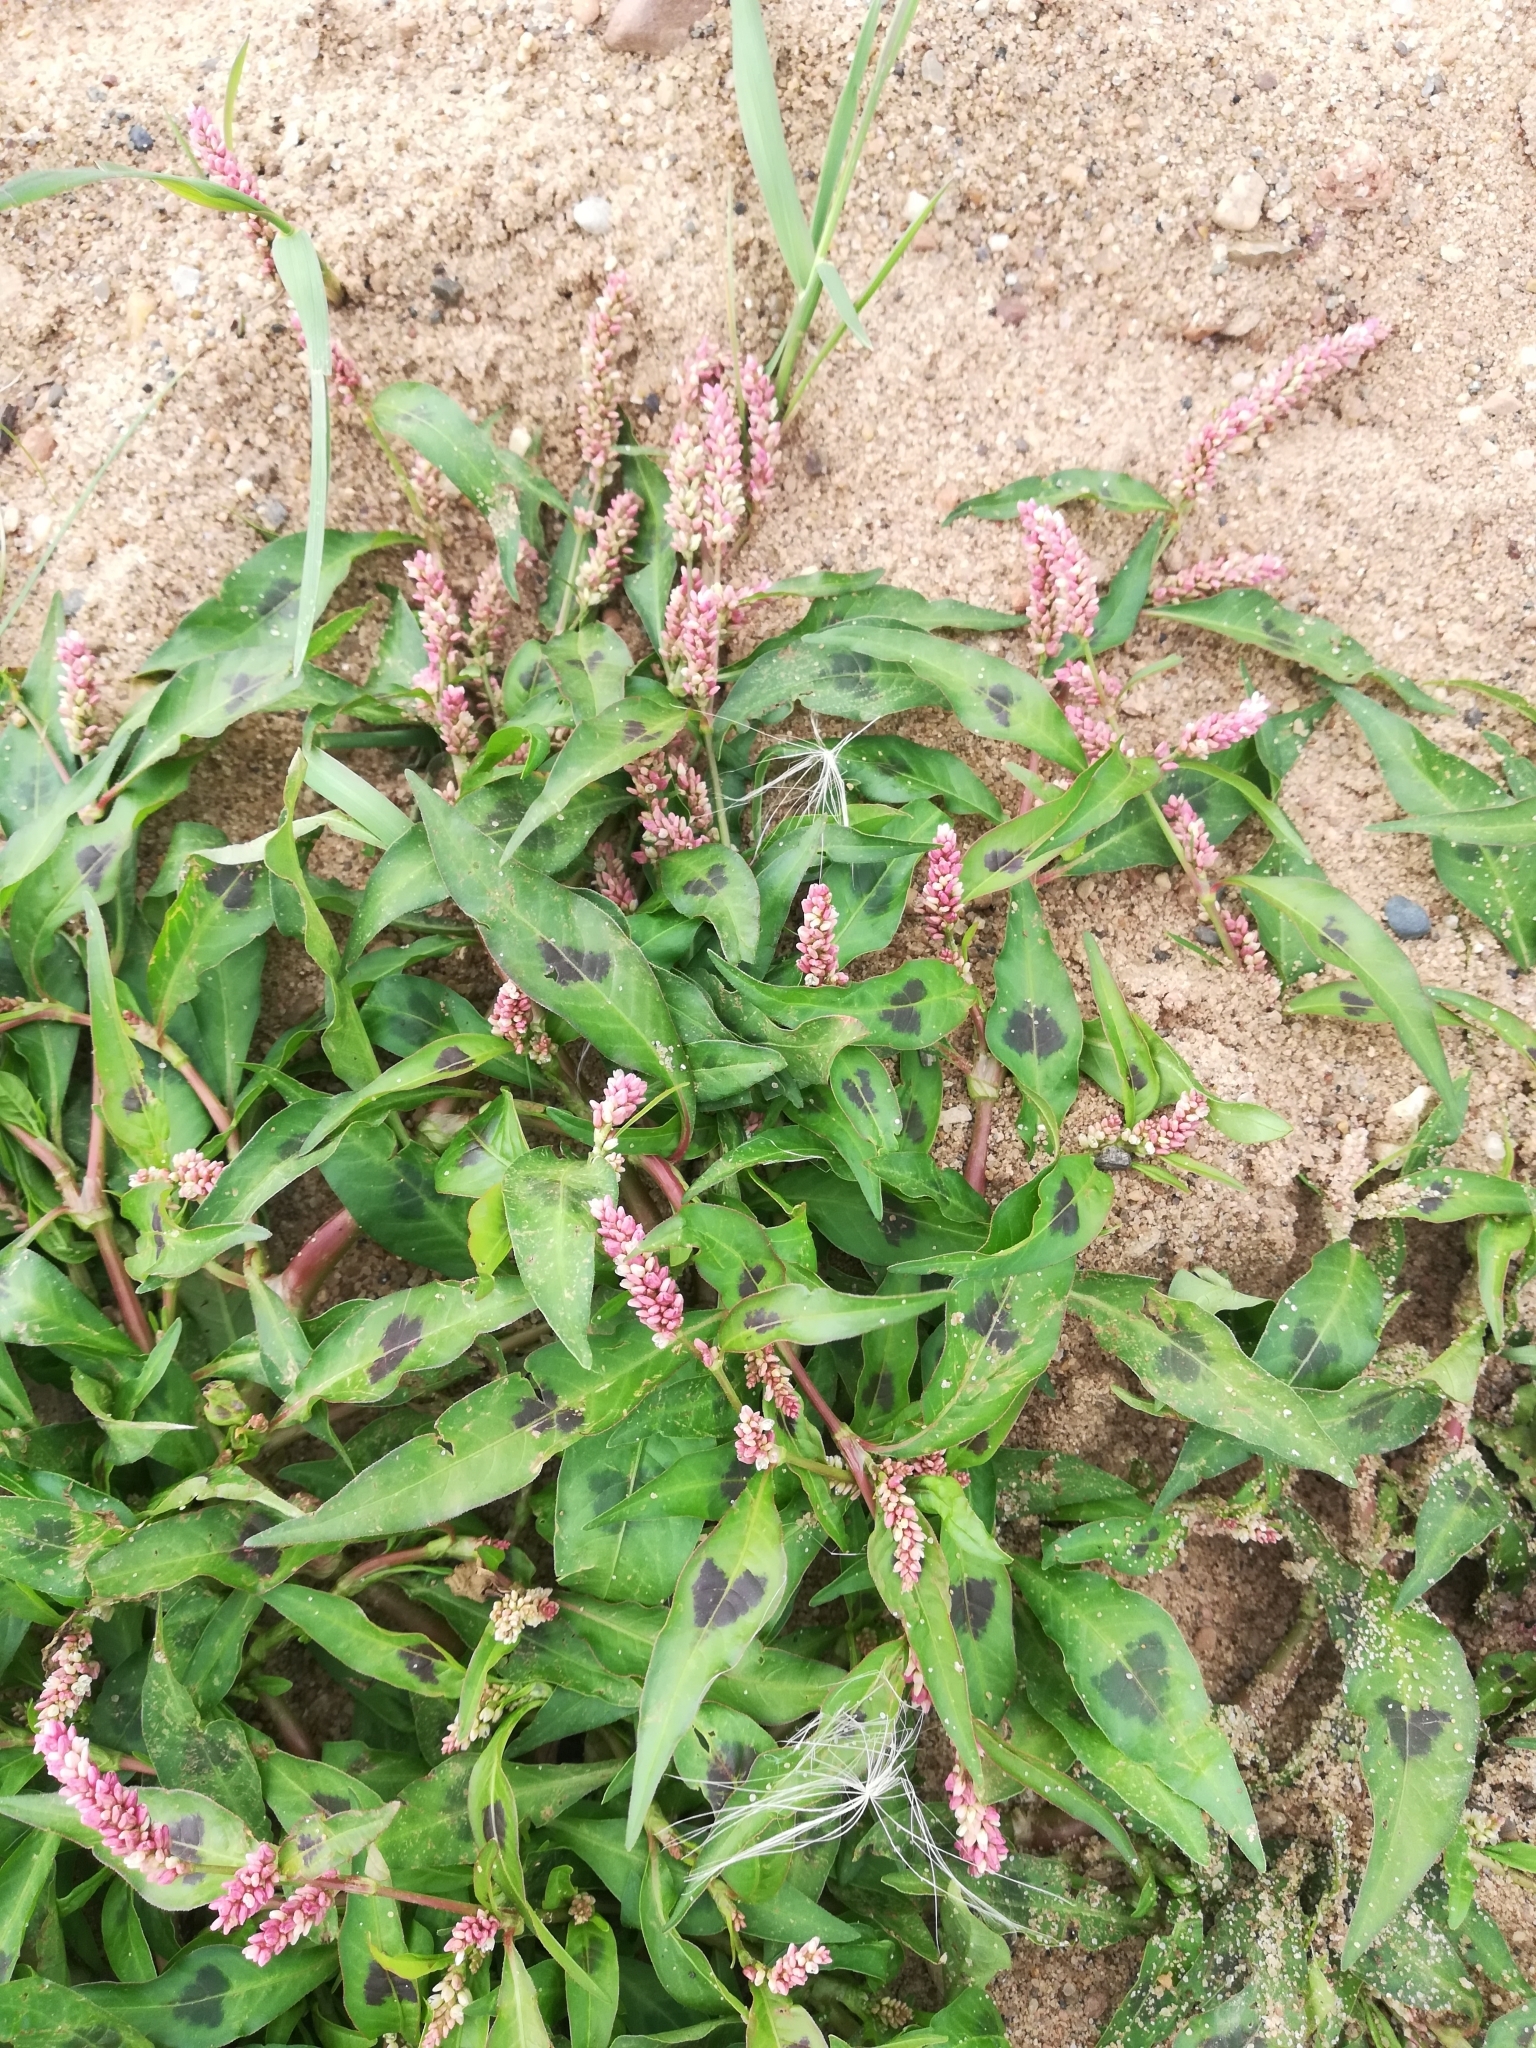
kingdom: Plantae
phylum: Tracheophyta
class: Magnoliopsida
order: Caryophyllales
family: Polygonaceae
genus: Persicaria
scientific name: Persicaria lapathifolia
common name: Curlytop knotweed
